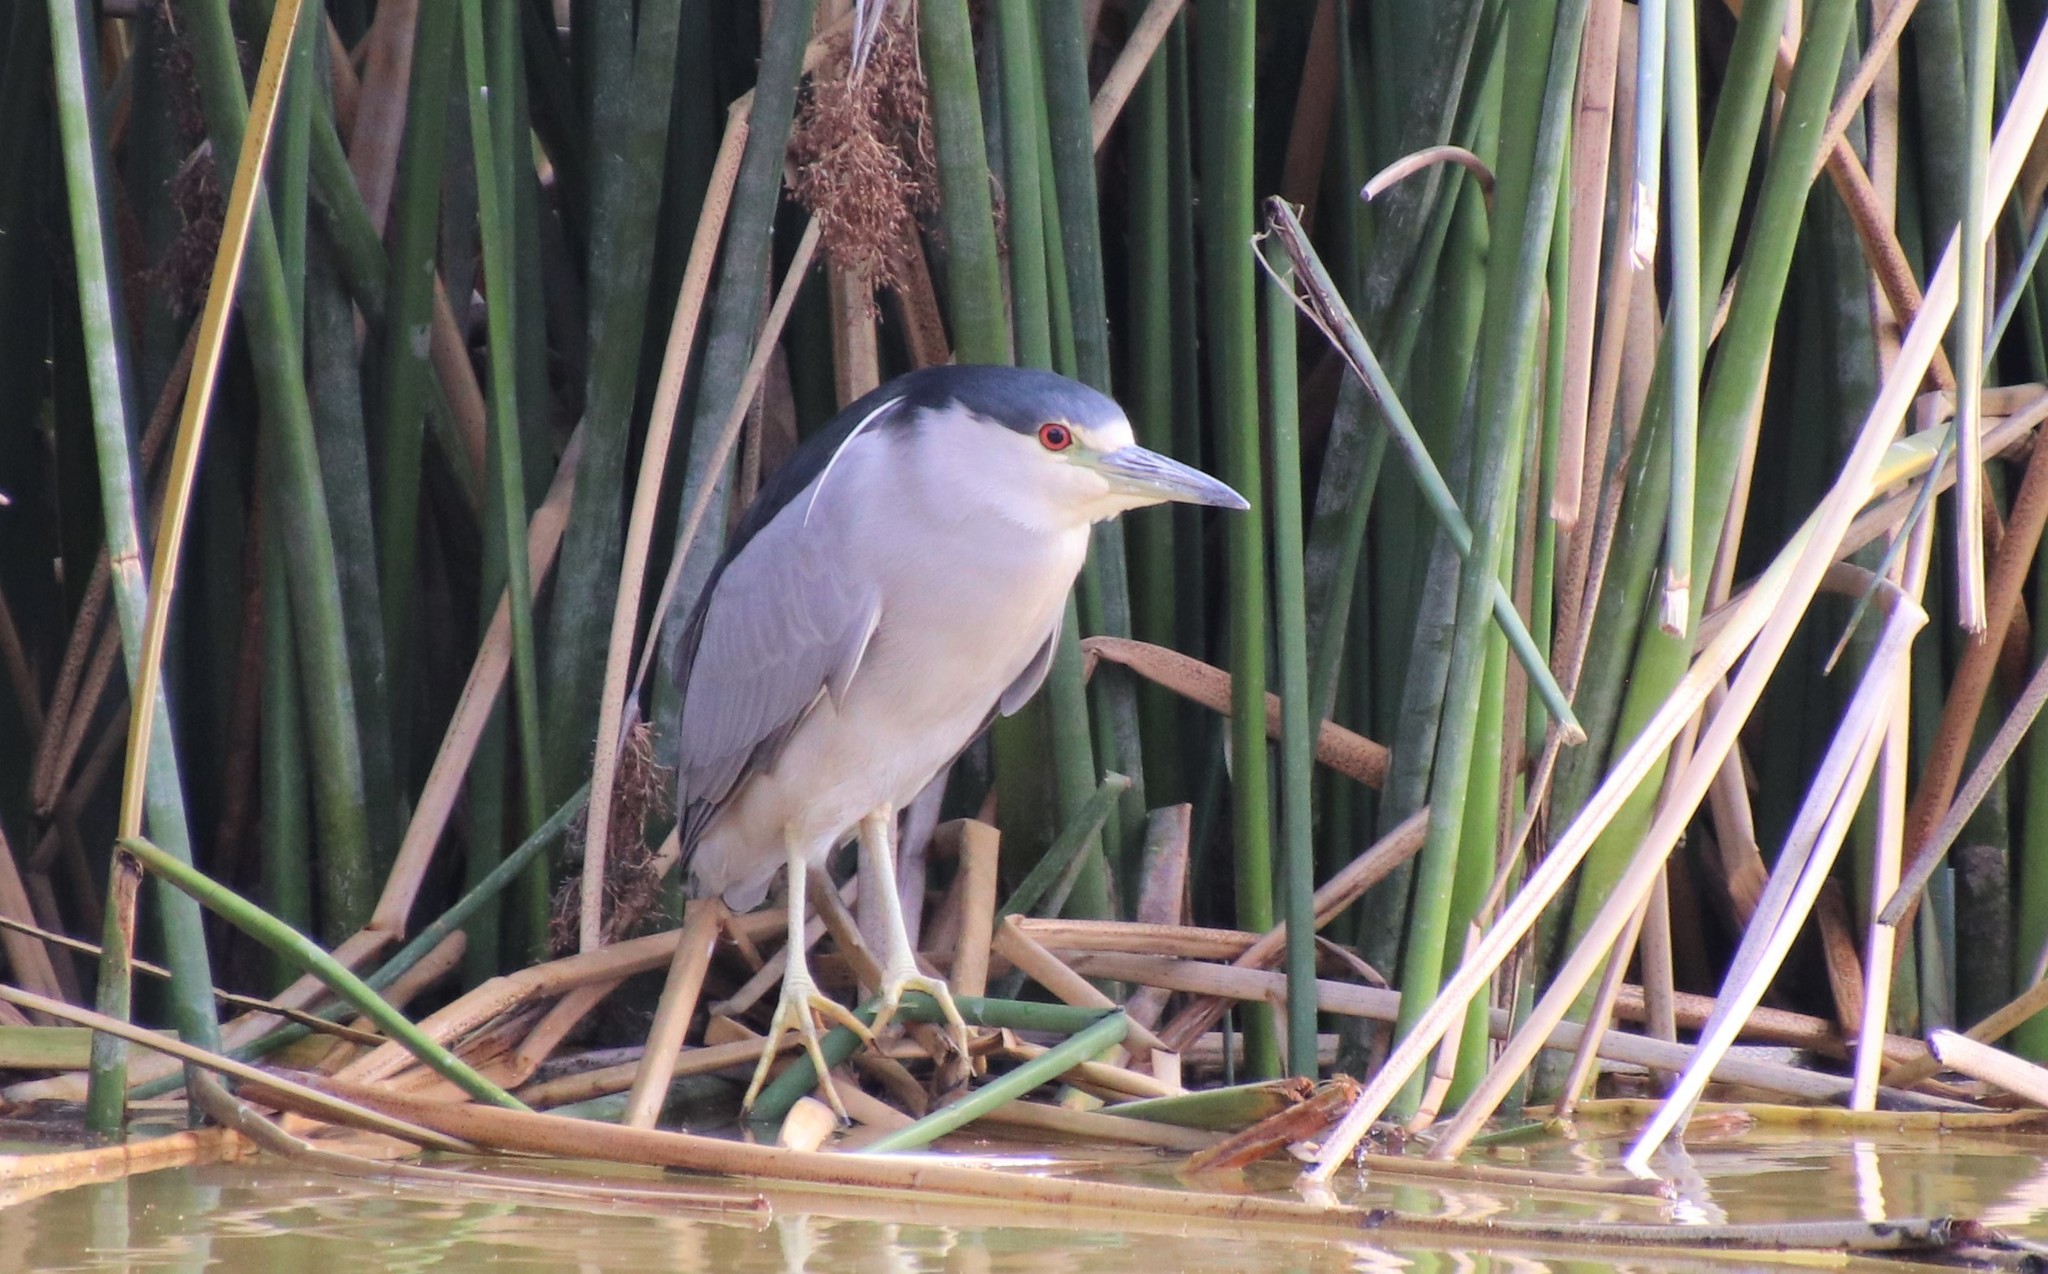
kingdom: Animalia
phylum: Chordata
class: Aves
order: Pelecaniformes
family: Ardeidae
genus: Nycticorax
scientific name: Nycticorax nycticorax
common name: Black-crowned night heron
